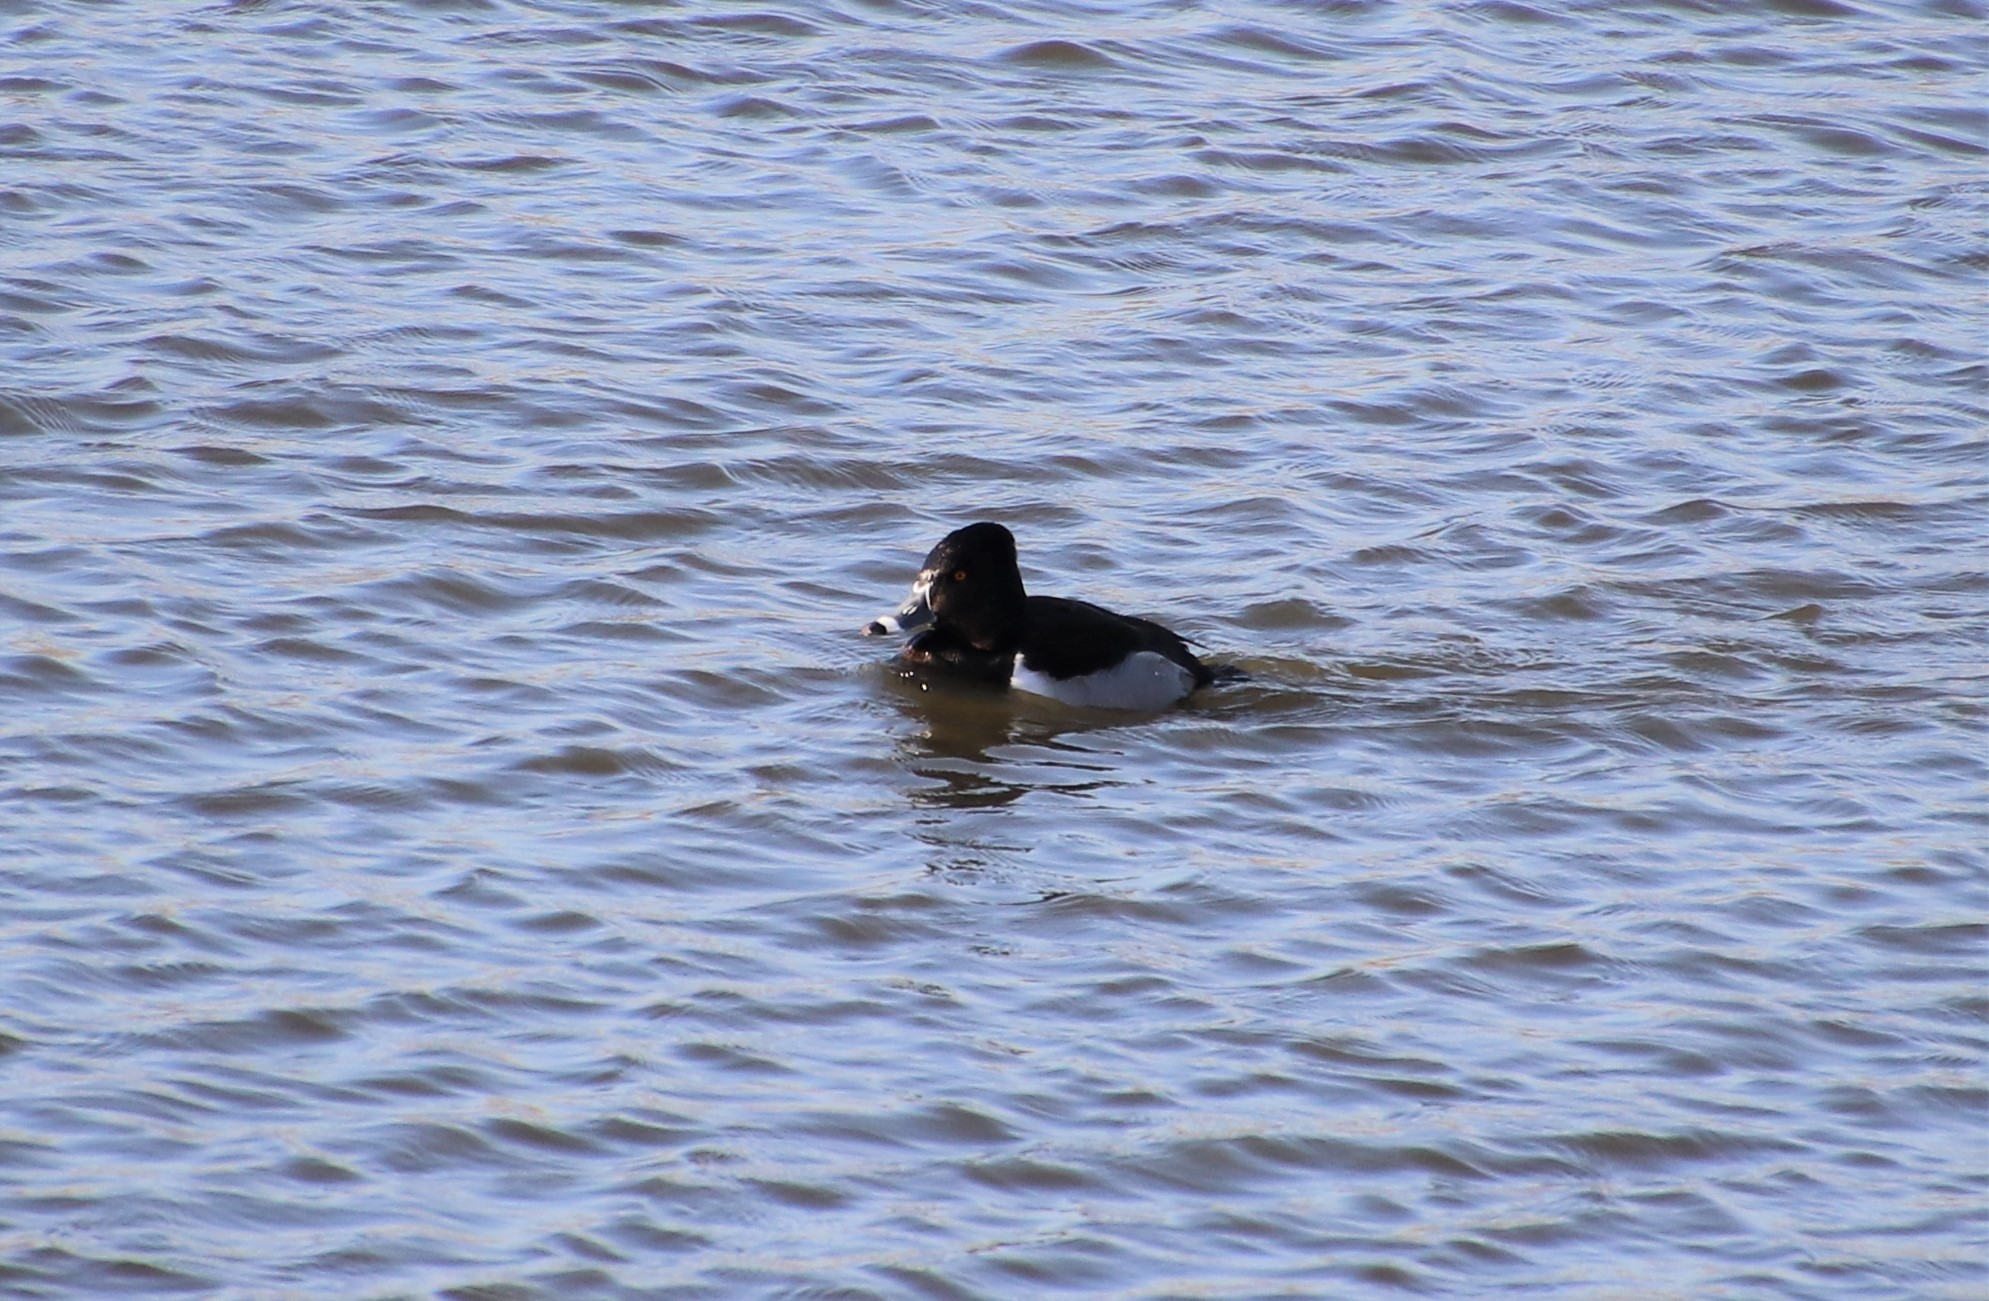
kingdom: Animalia
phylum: Chordata
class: Aves
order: Anseriformes
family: Anatidae
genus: Aythya
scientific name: Aythya collaris
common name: Ring-necked duck
